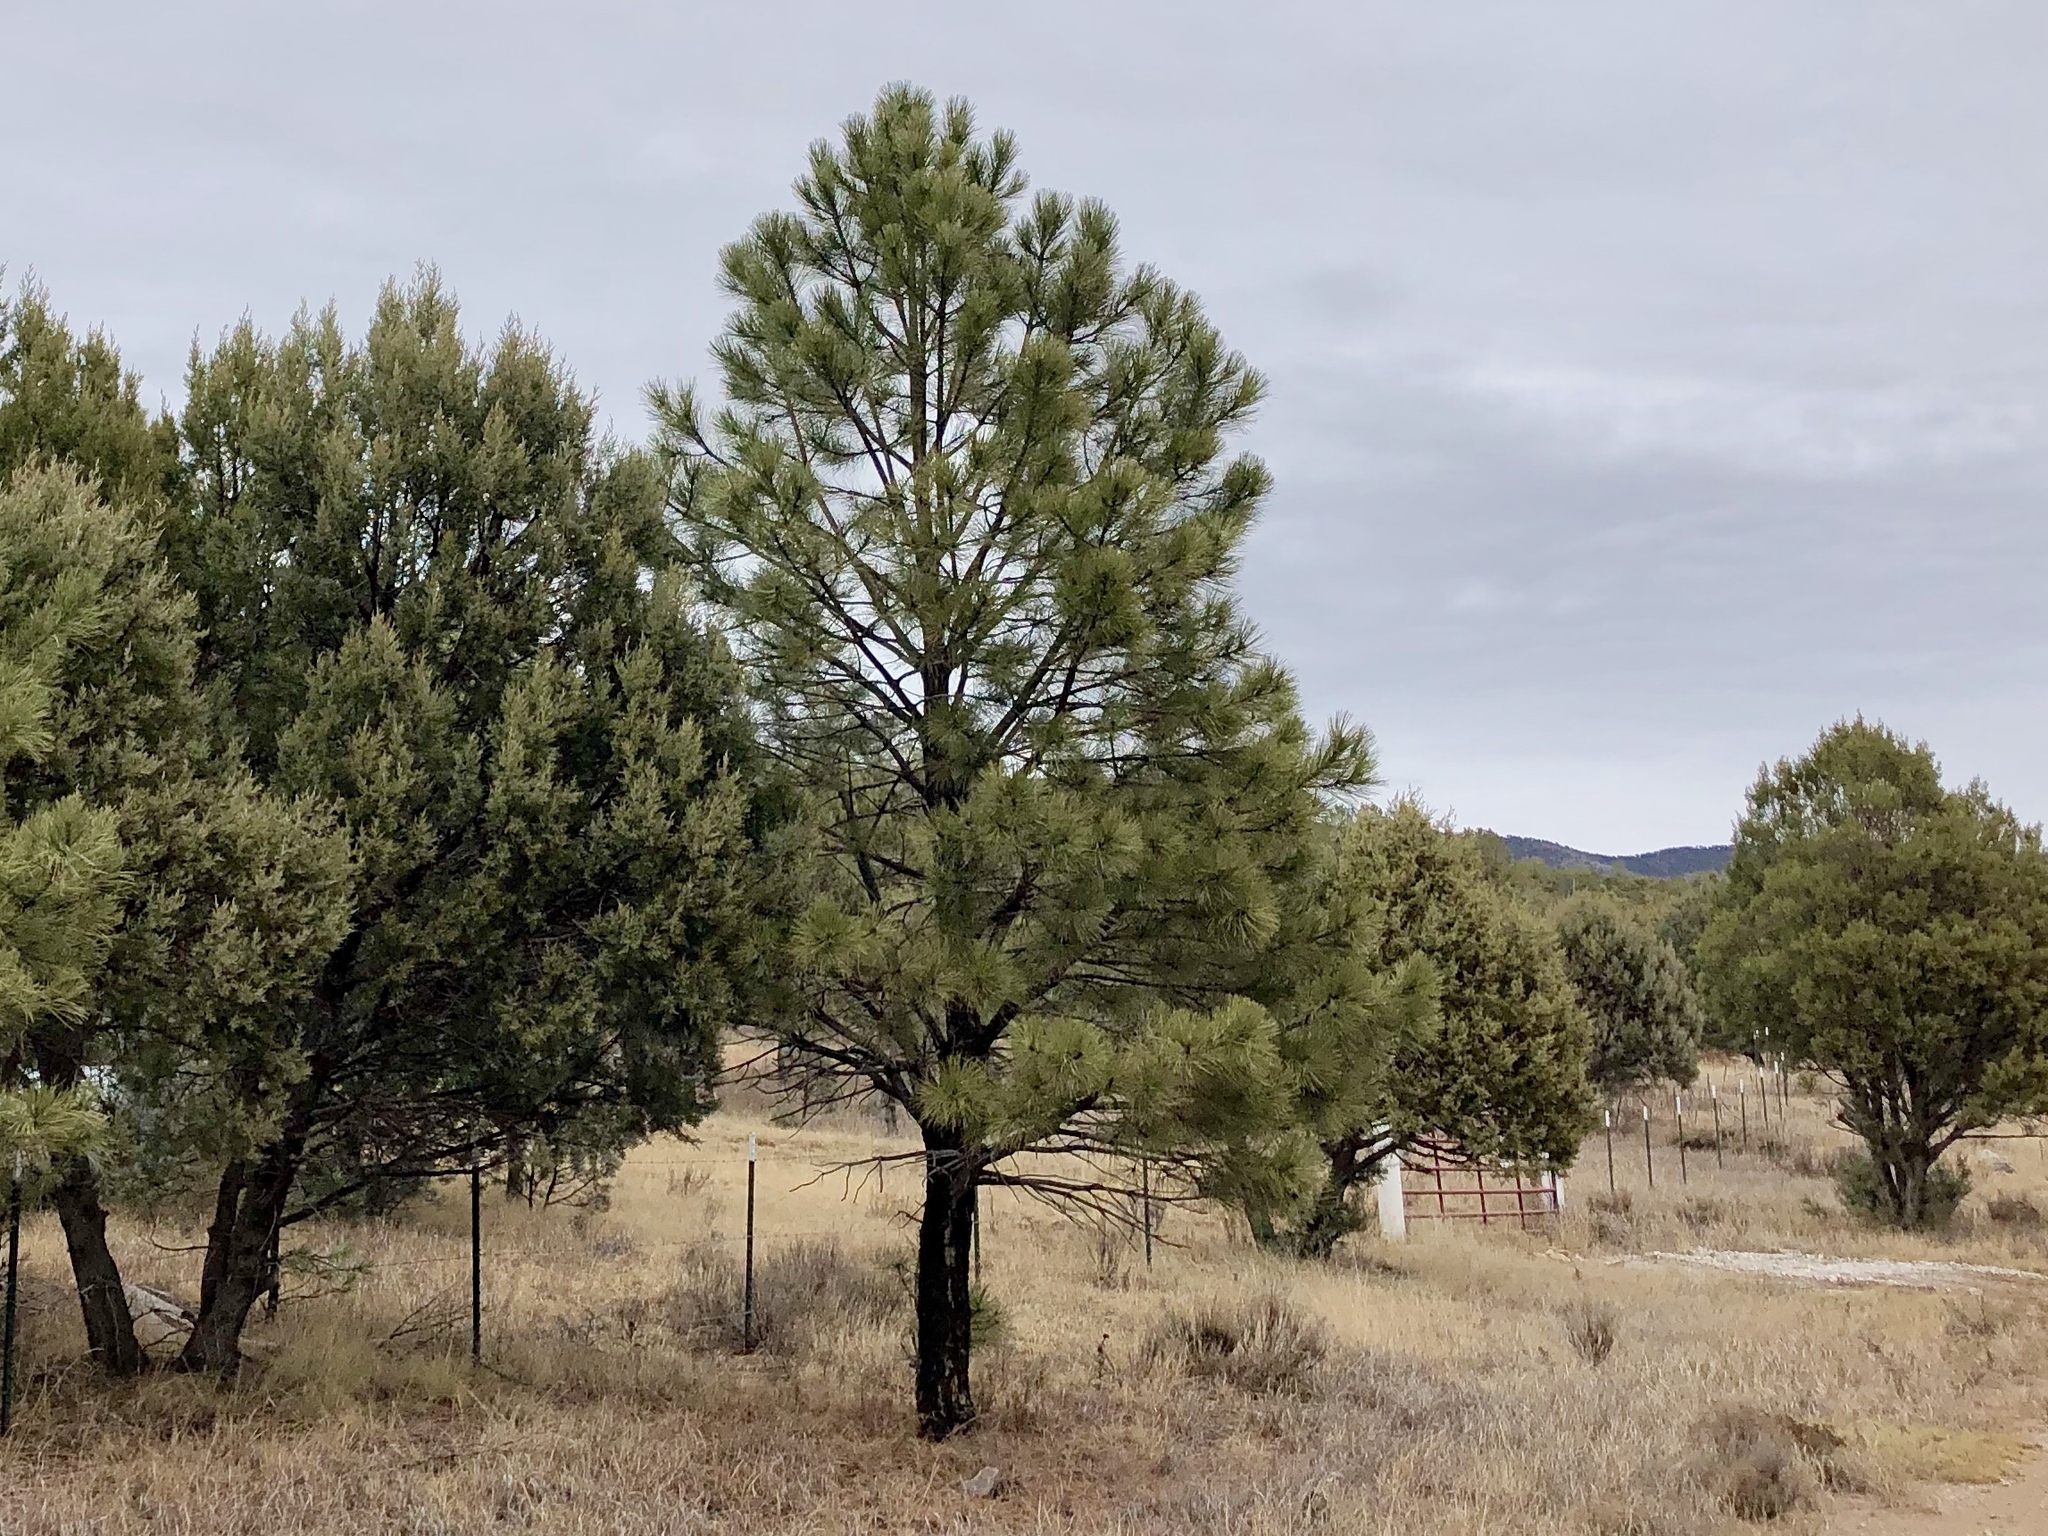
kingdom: Plantae
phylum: Tracheophyta
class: Pinopsida
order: Pinales
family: Pinaceae
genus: Pinus
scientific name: Pinus ponderosa
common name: Western yellow-pine
